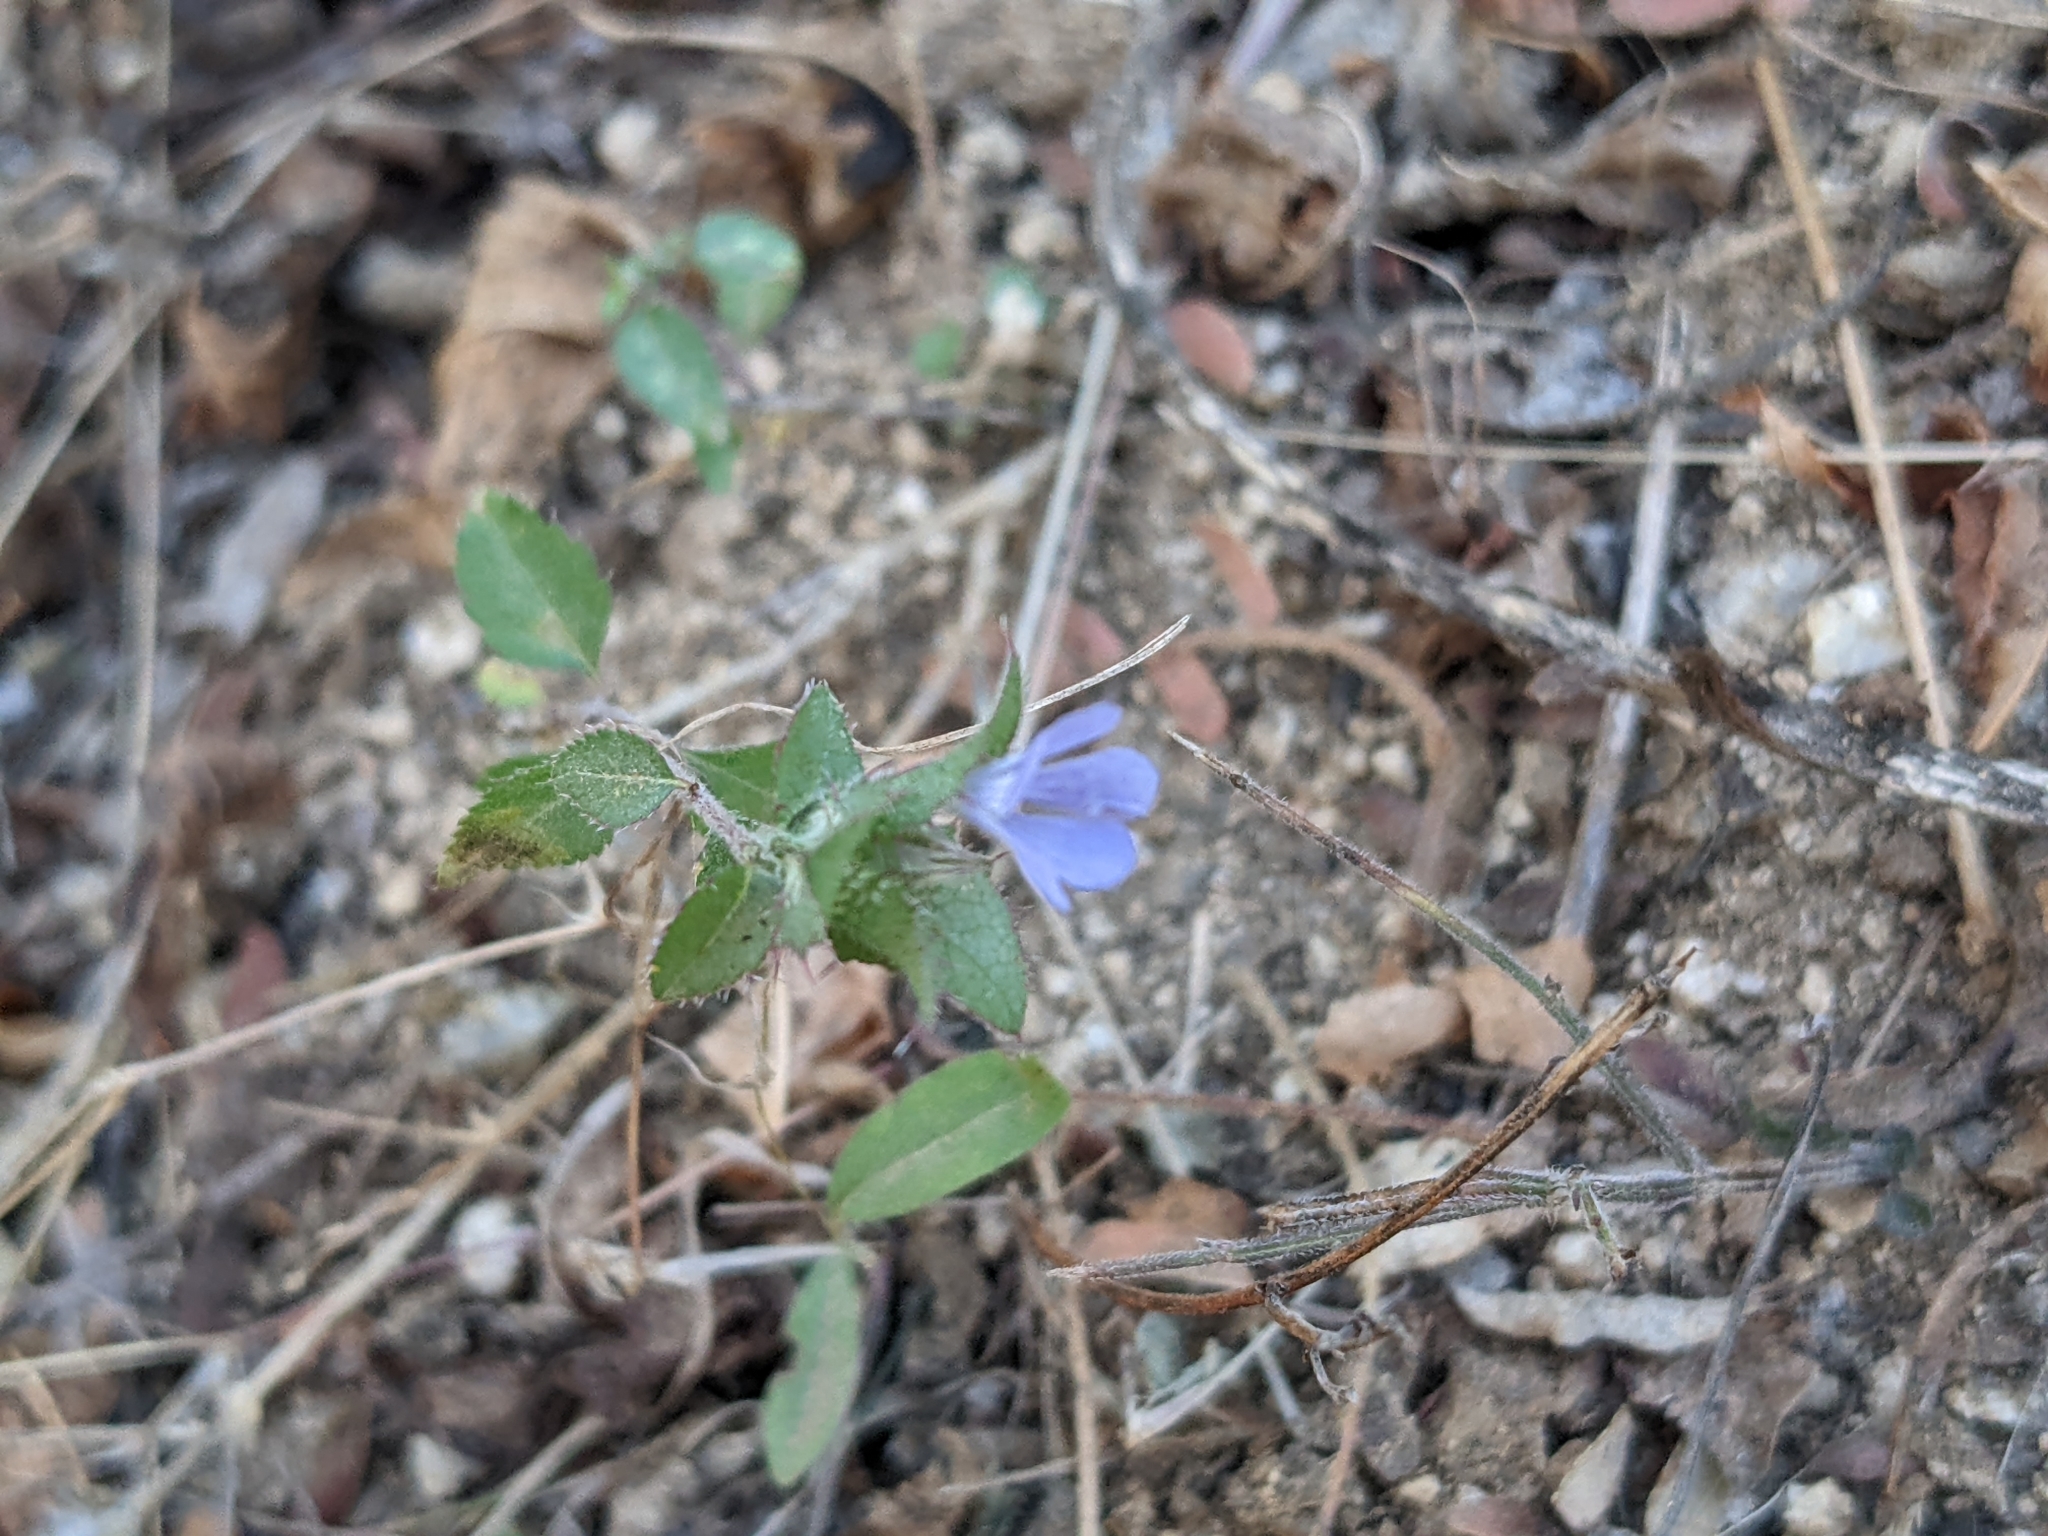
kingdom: Plantae
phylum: Tracheophyta
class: Magnoliopsida
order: Ericales
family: Polemoniaceae
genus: Loeselia
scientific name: Loeselia ciliata
